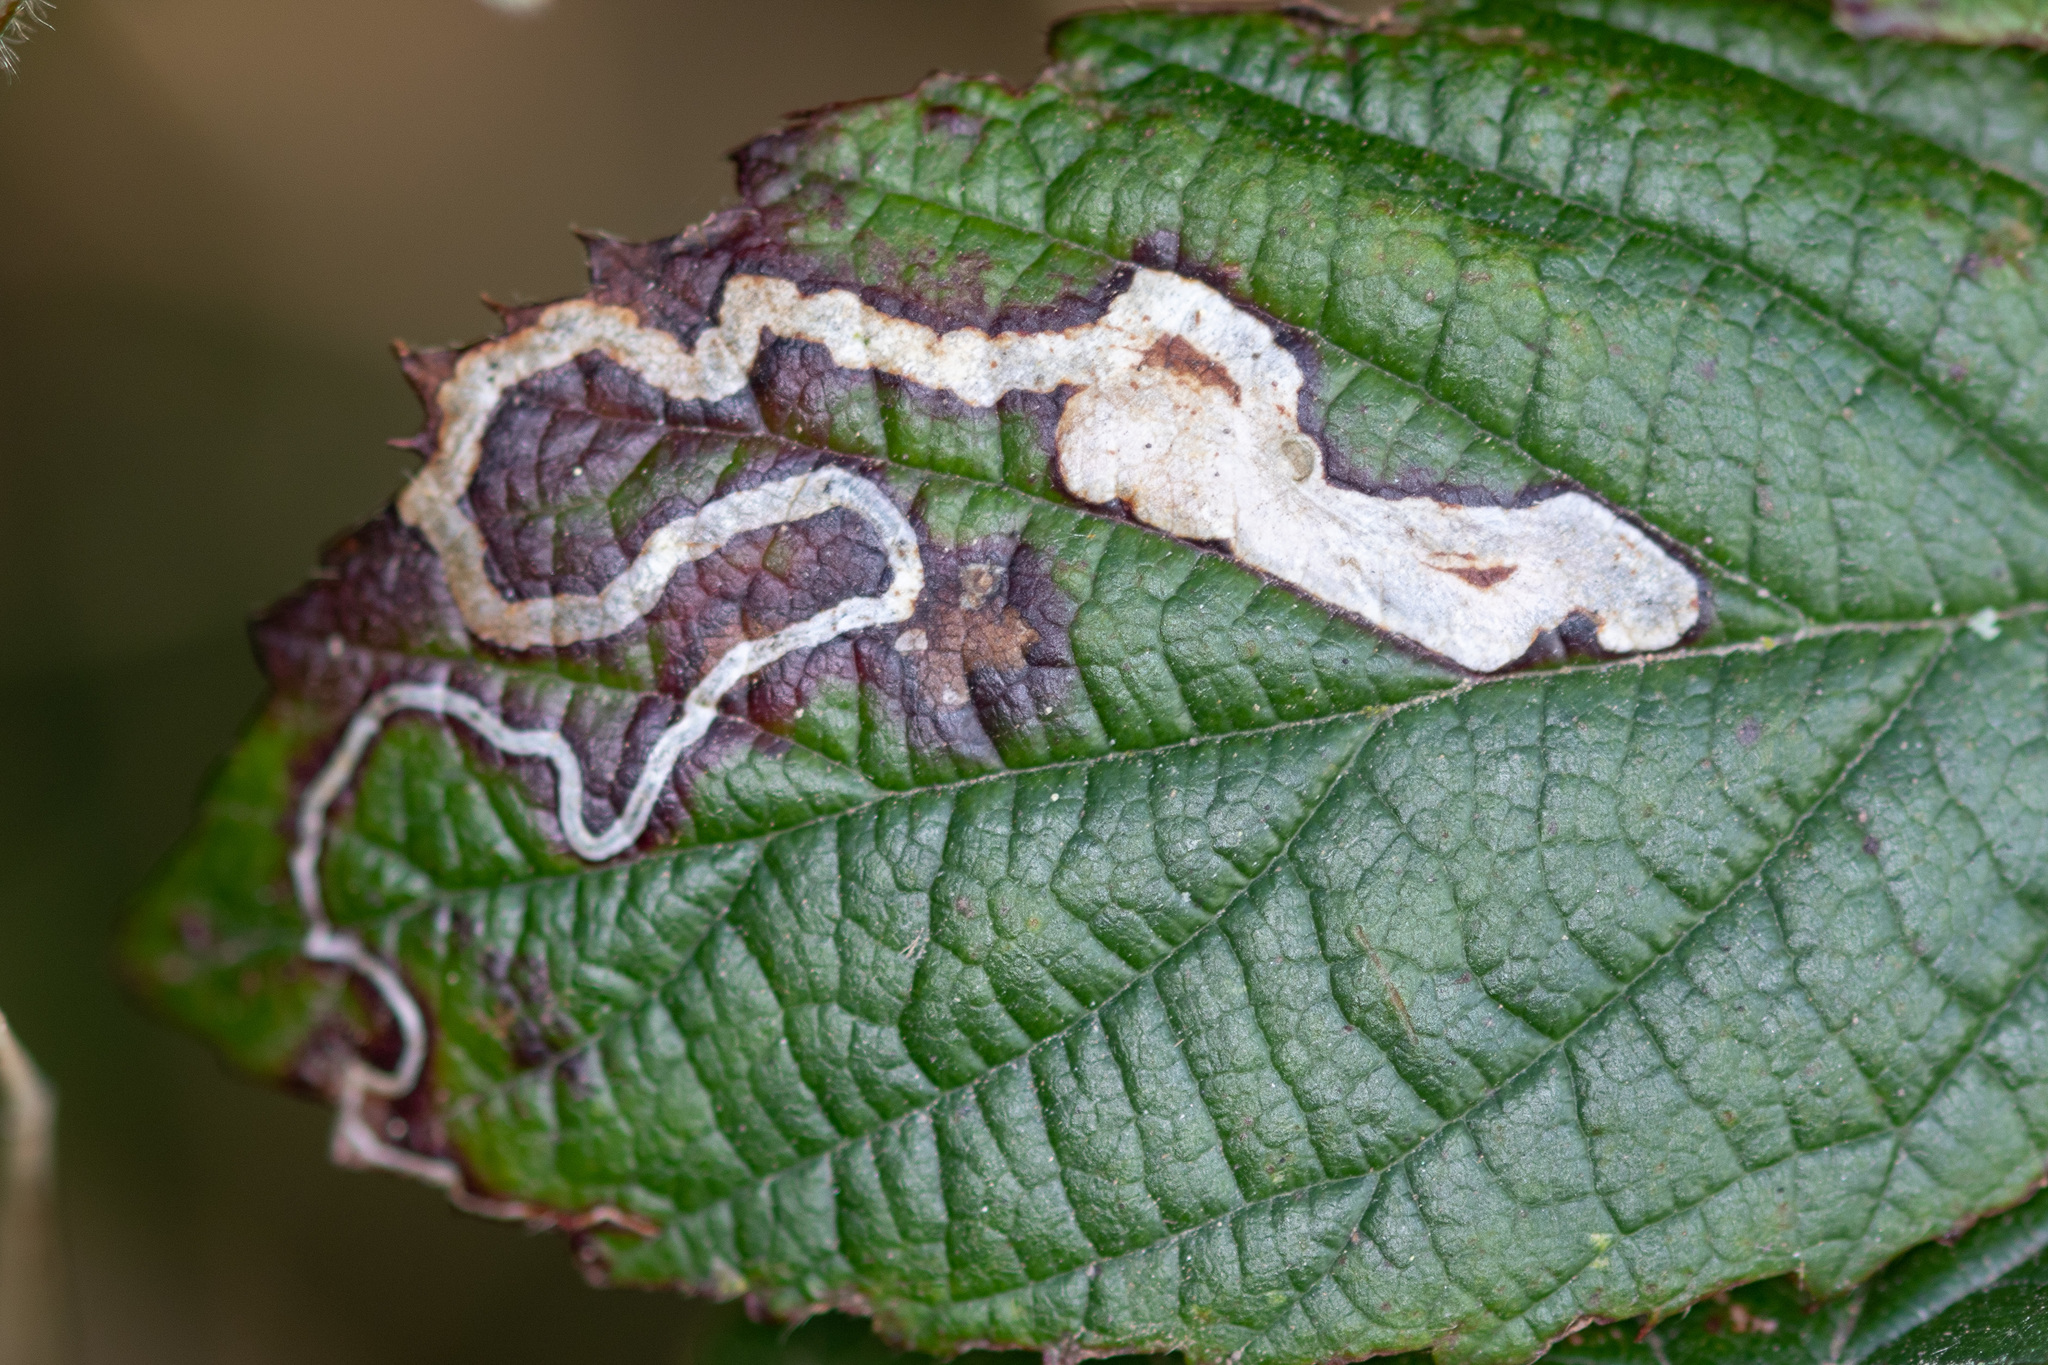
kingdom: Animalia
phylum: Arthropoda
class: Insecta
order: Lepidoptera
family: Nepticulidae
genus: Stigmella
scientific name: Stigmella aurella
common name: Golden pigmy
